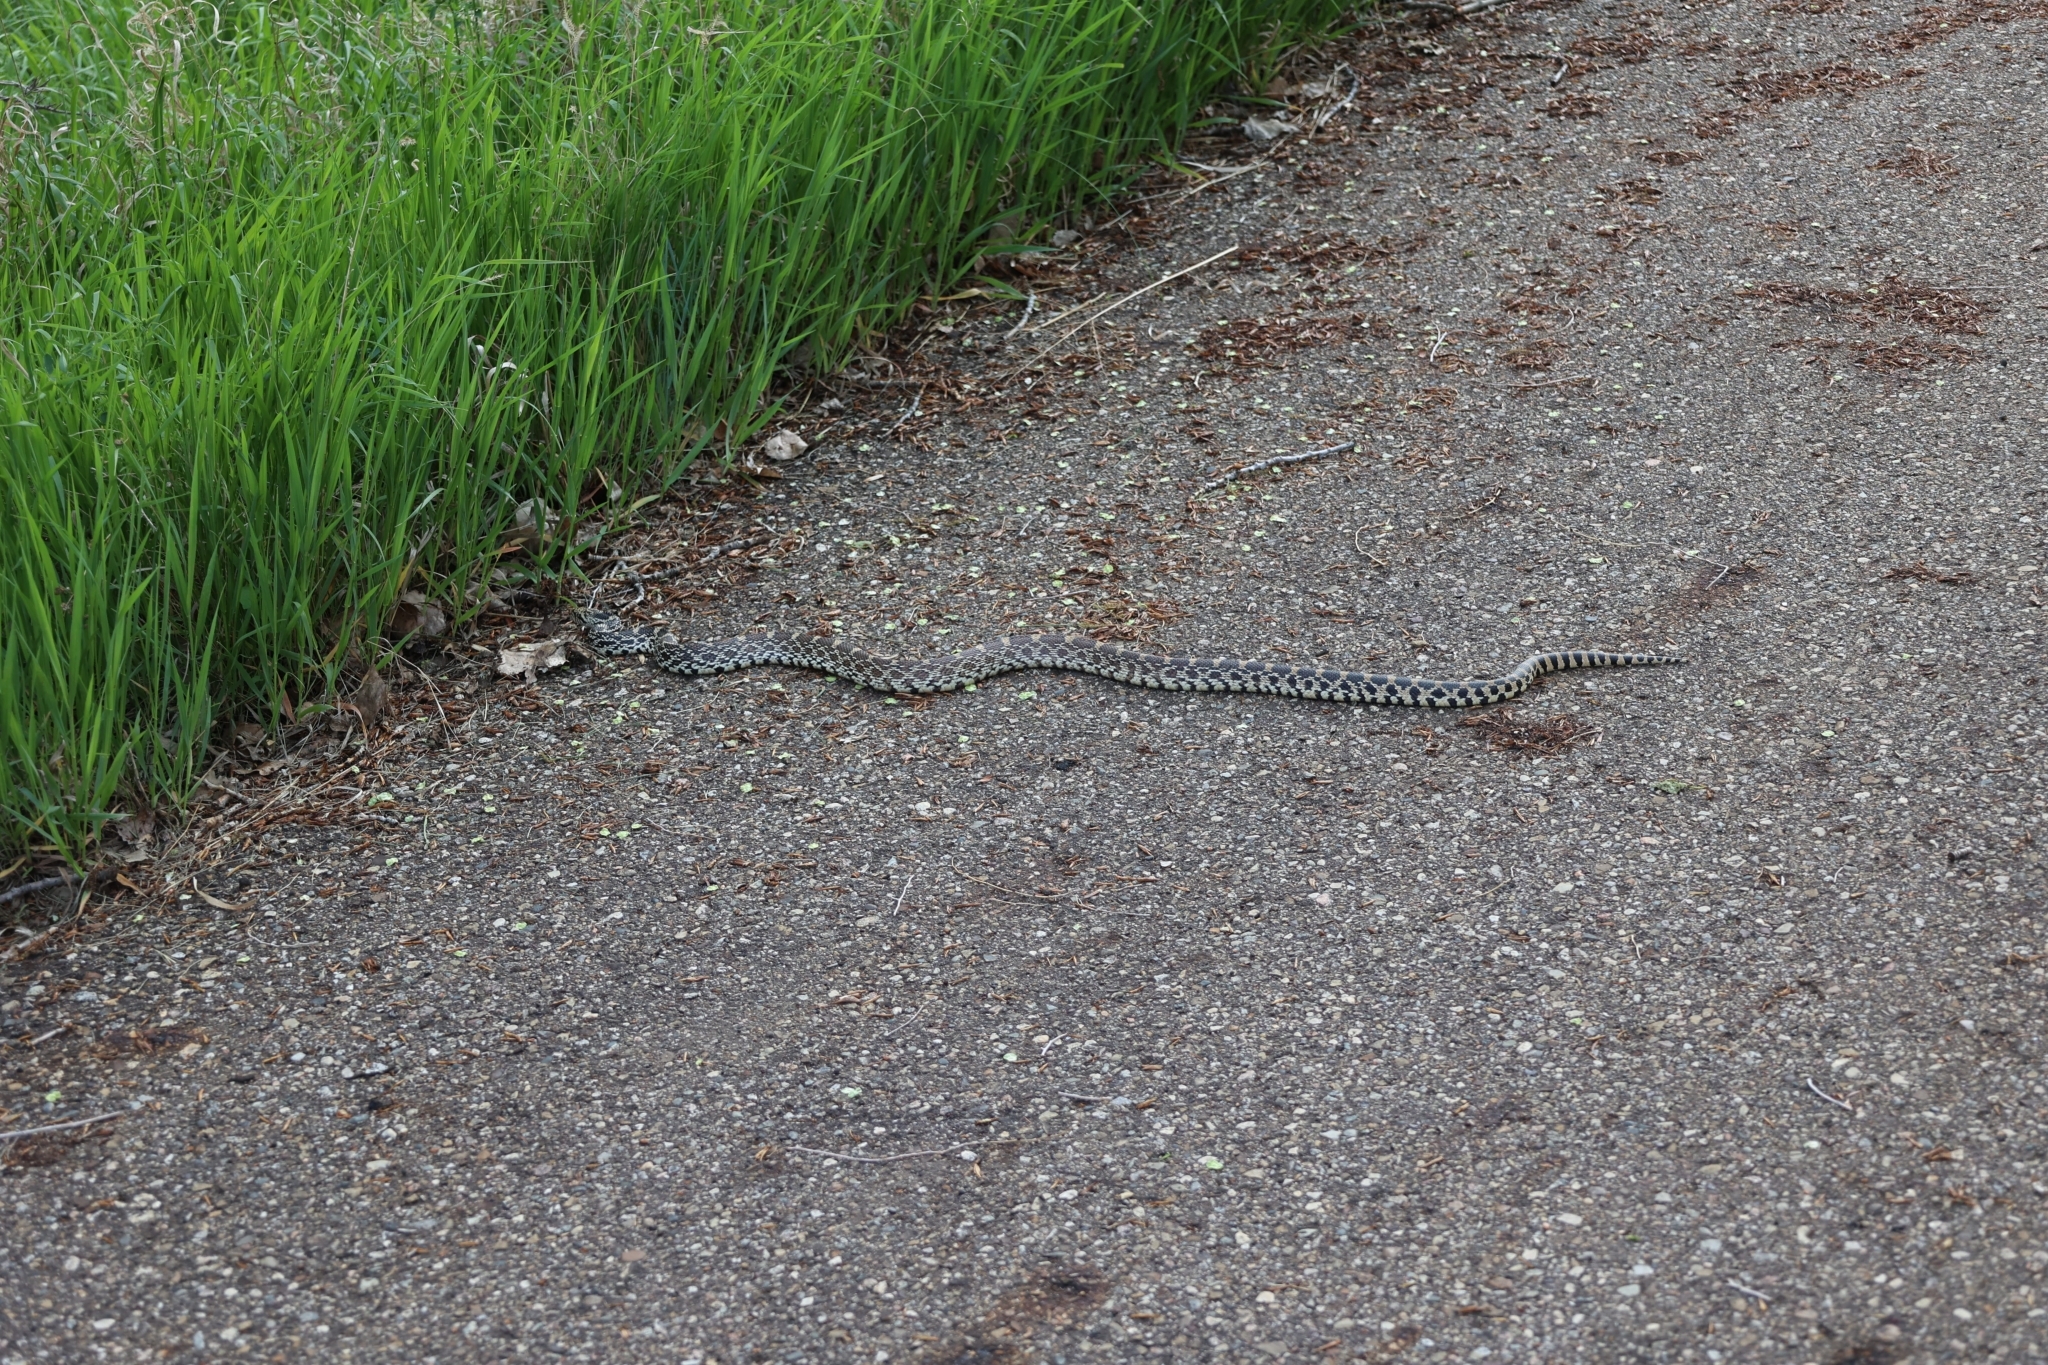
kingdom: Animalia
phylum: Chordata
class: Squamata
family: Colubridae
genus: Pituophis
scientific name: Pituophis catenifer
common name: Gopher snake
